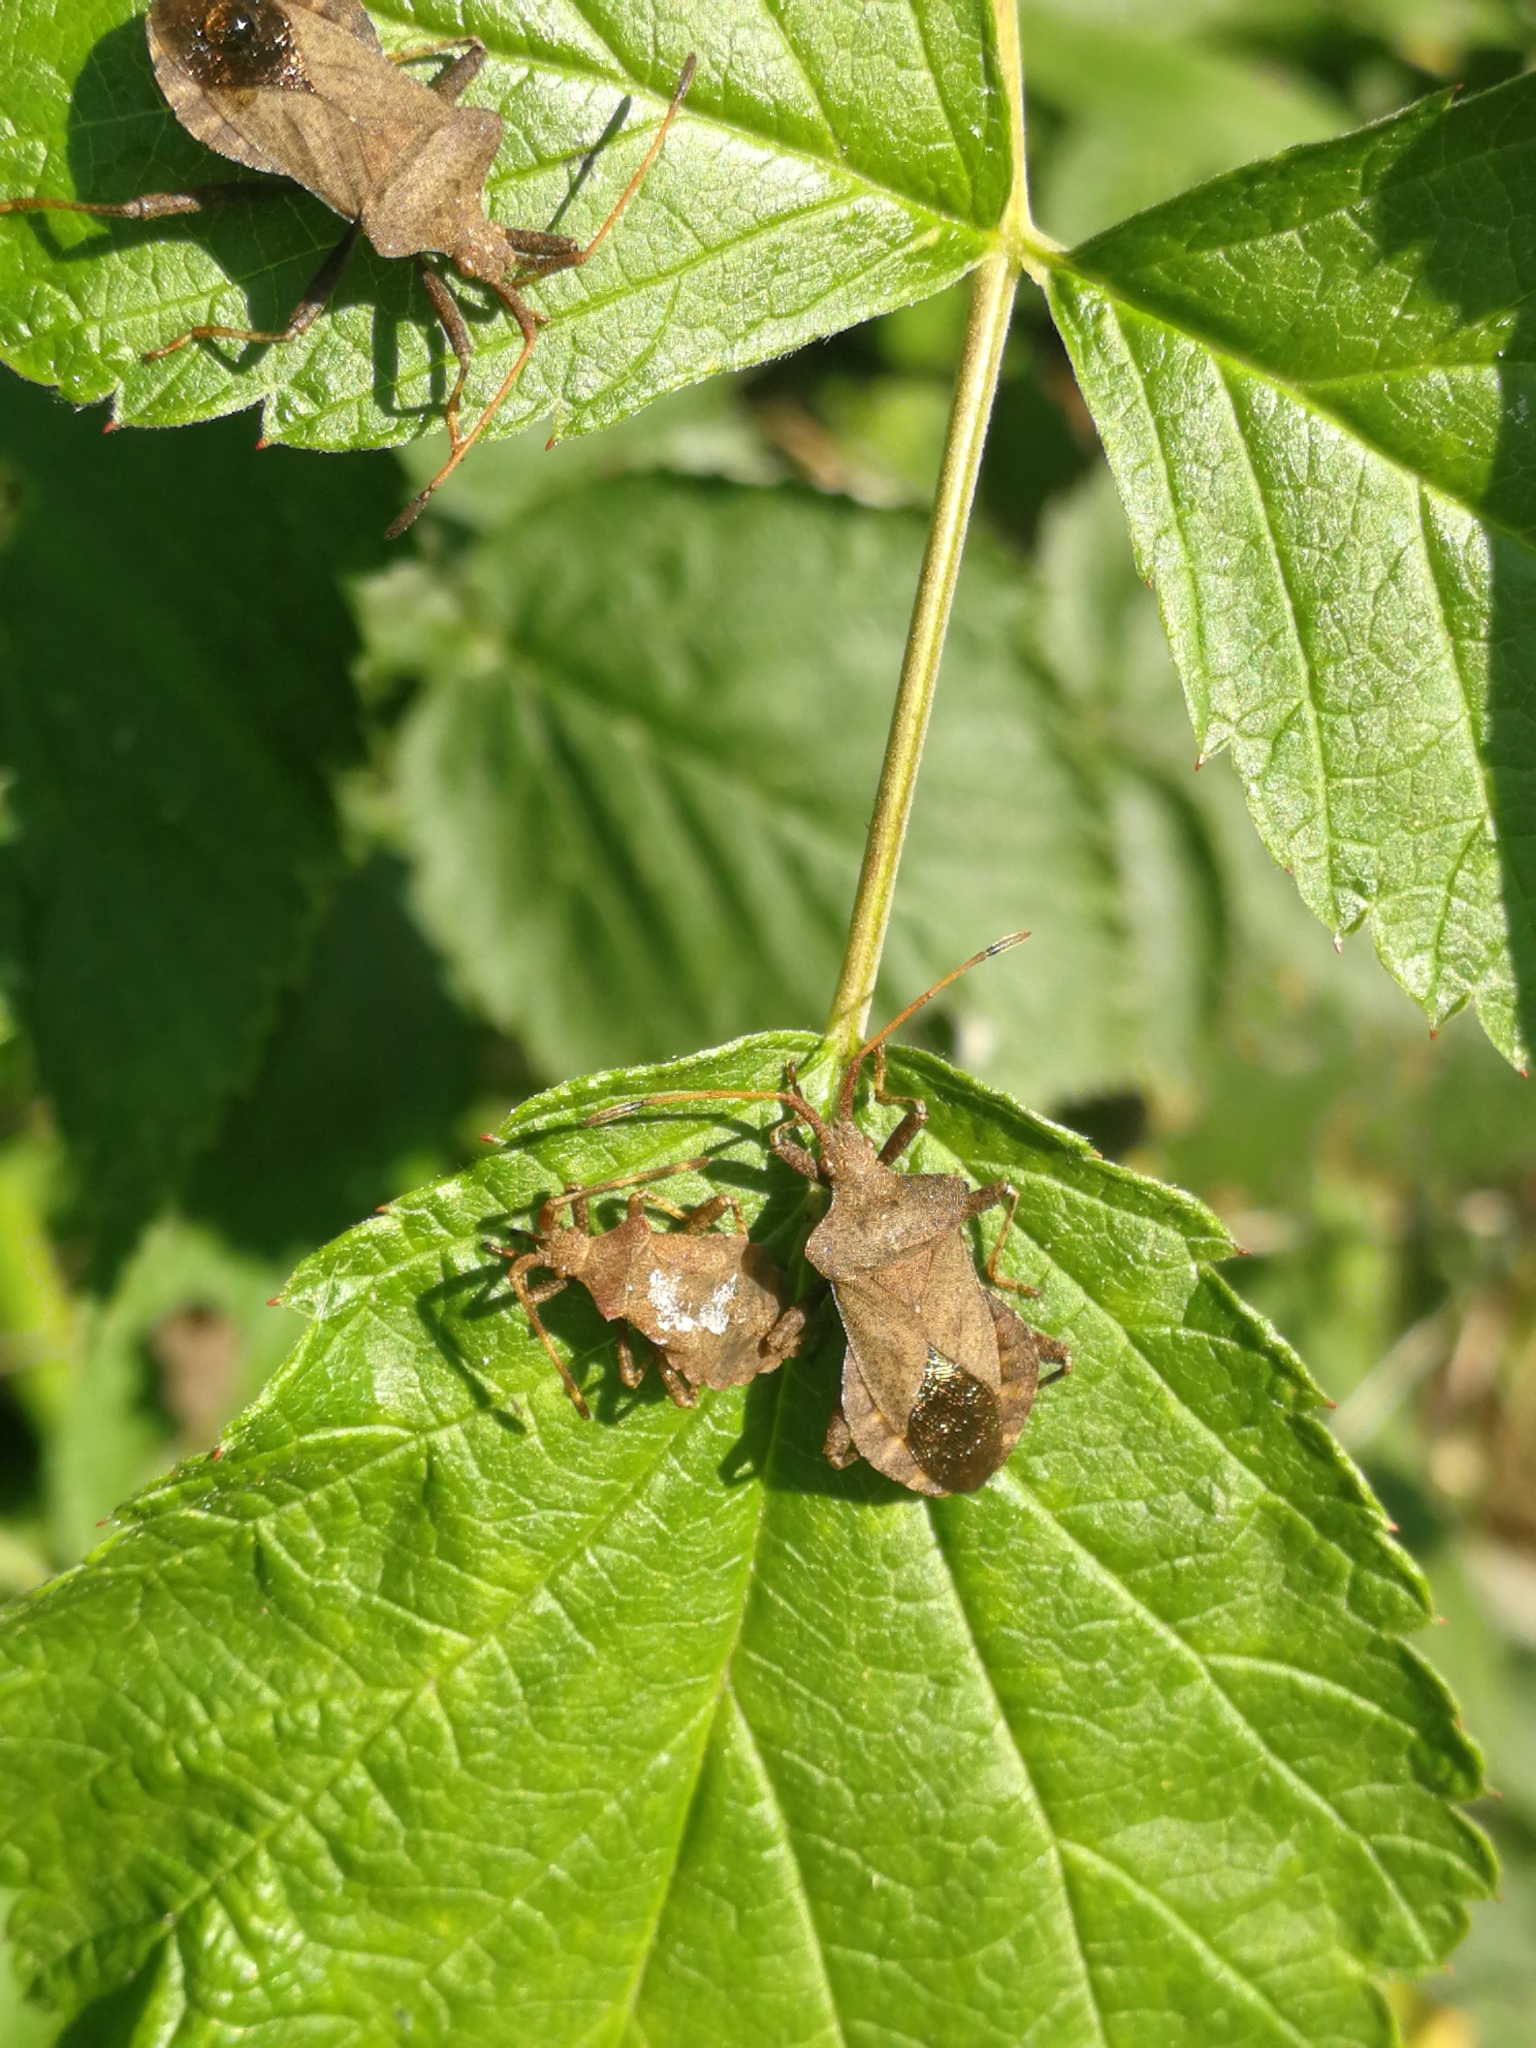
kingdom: Animalia
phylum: Arthropoda
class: Insecta
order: Hemiptera
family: Coreidae
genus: Coreus
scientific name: Coreus marginatus
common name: Dock bug
